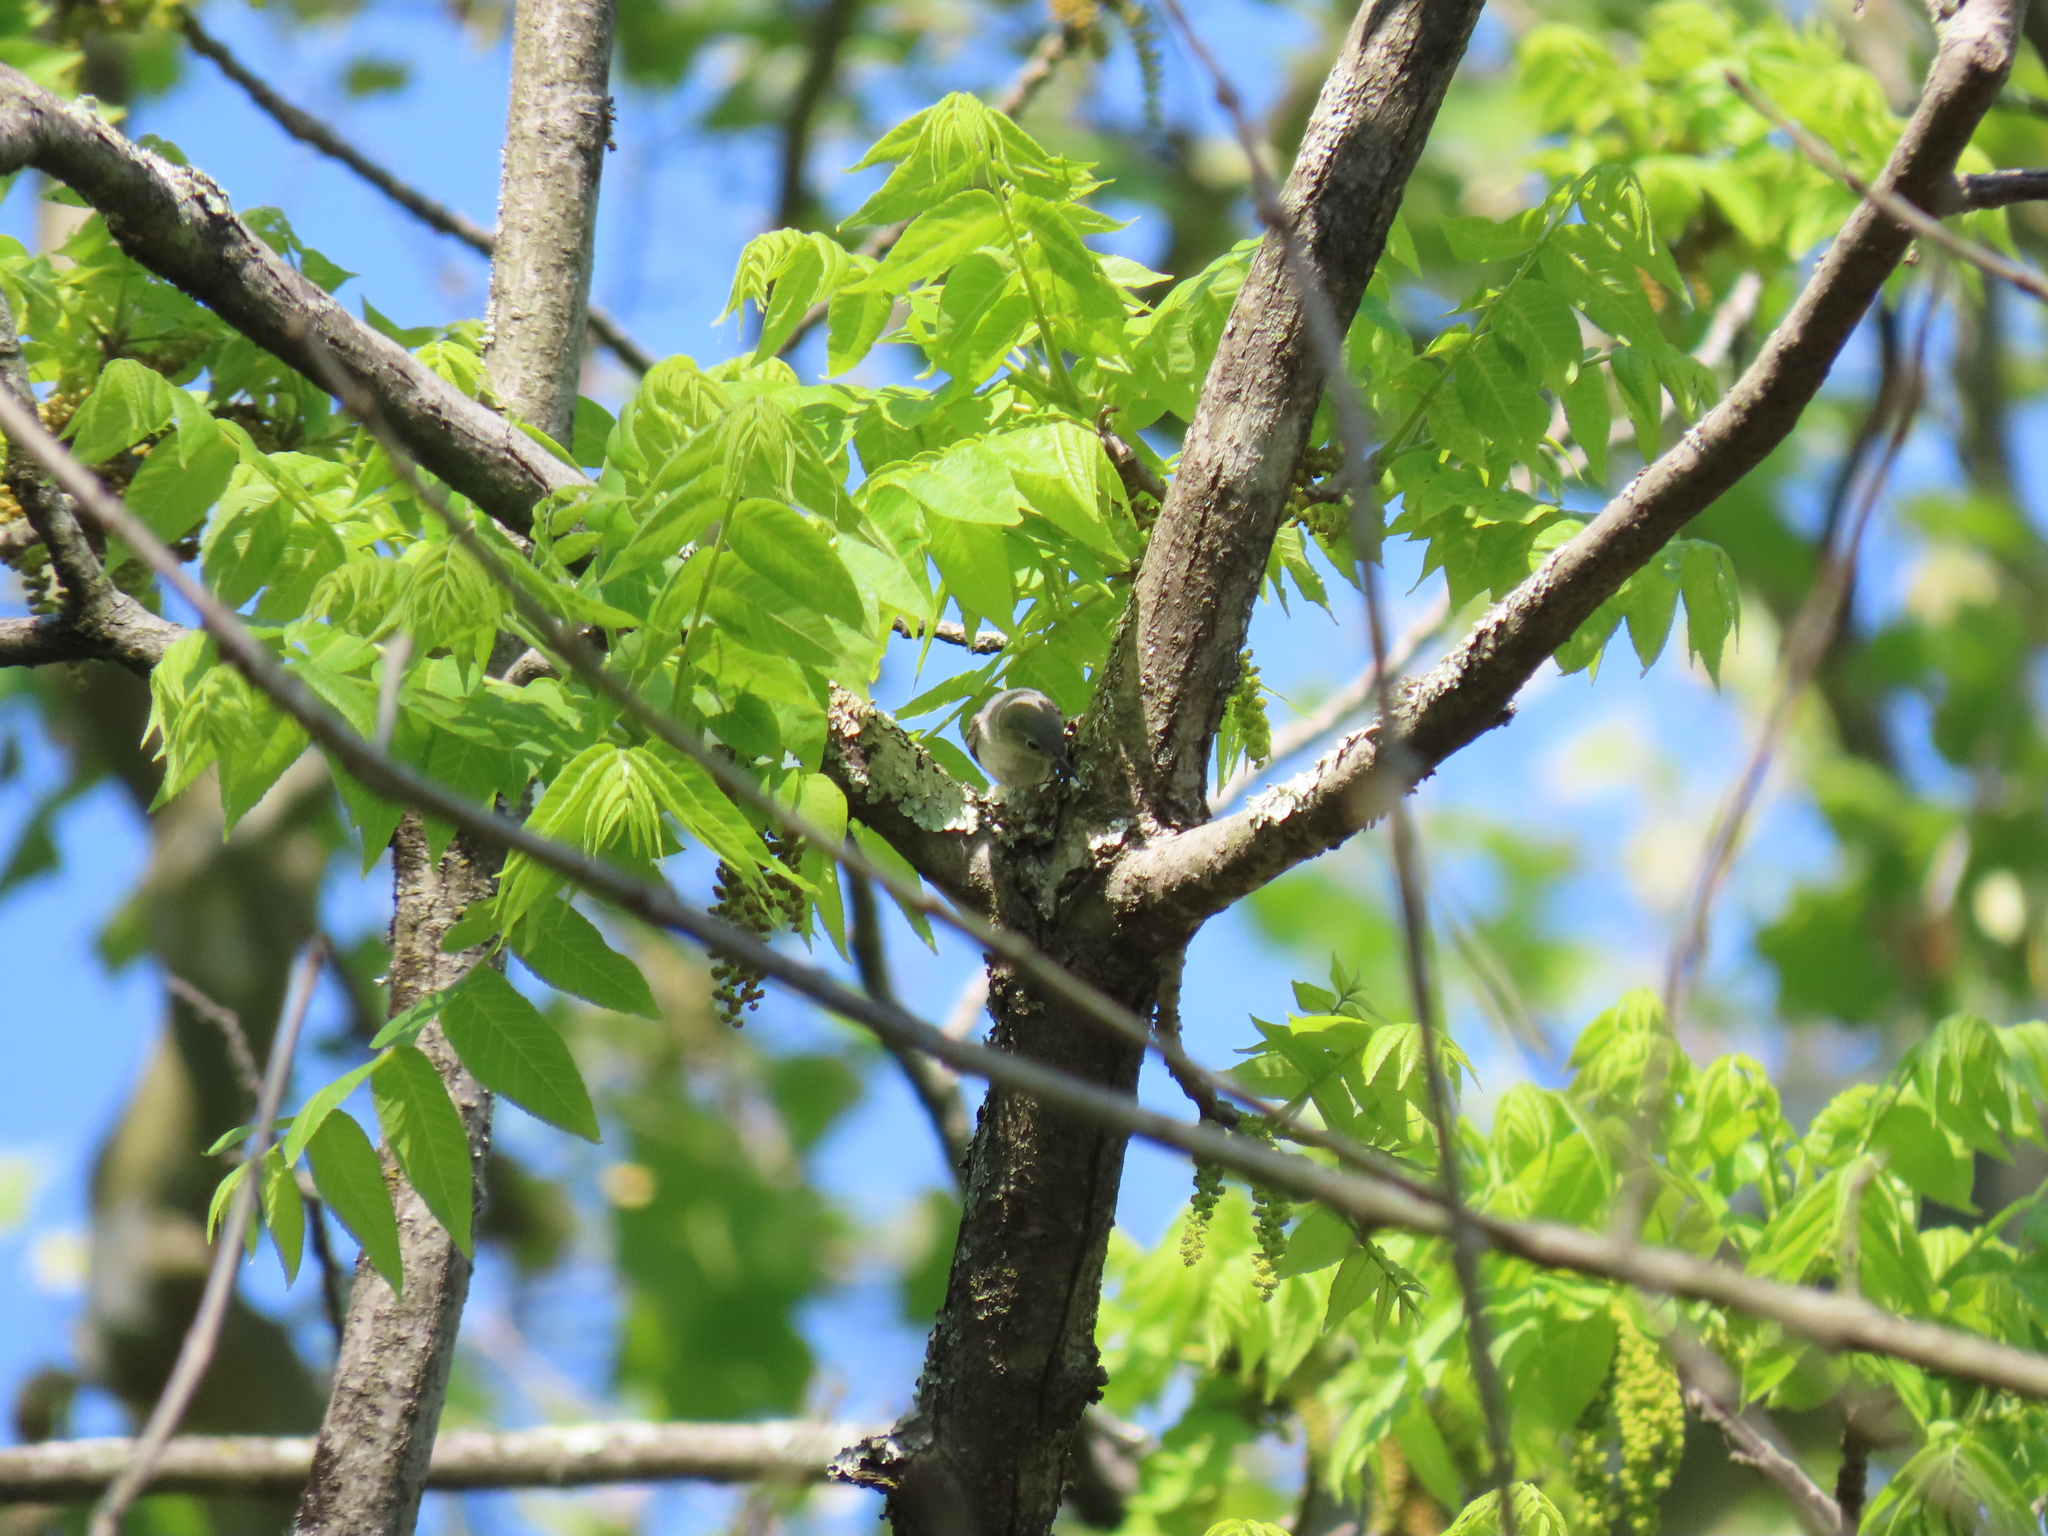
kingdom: Animalia
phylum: Chordata
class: Aves
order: Passeriformes
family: Polioptilidae
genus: Polioptila
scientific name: Polioptila caerulea
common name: Blue-gray gnatcatcher
